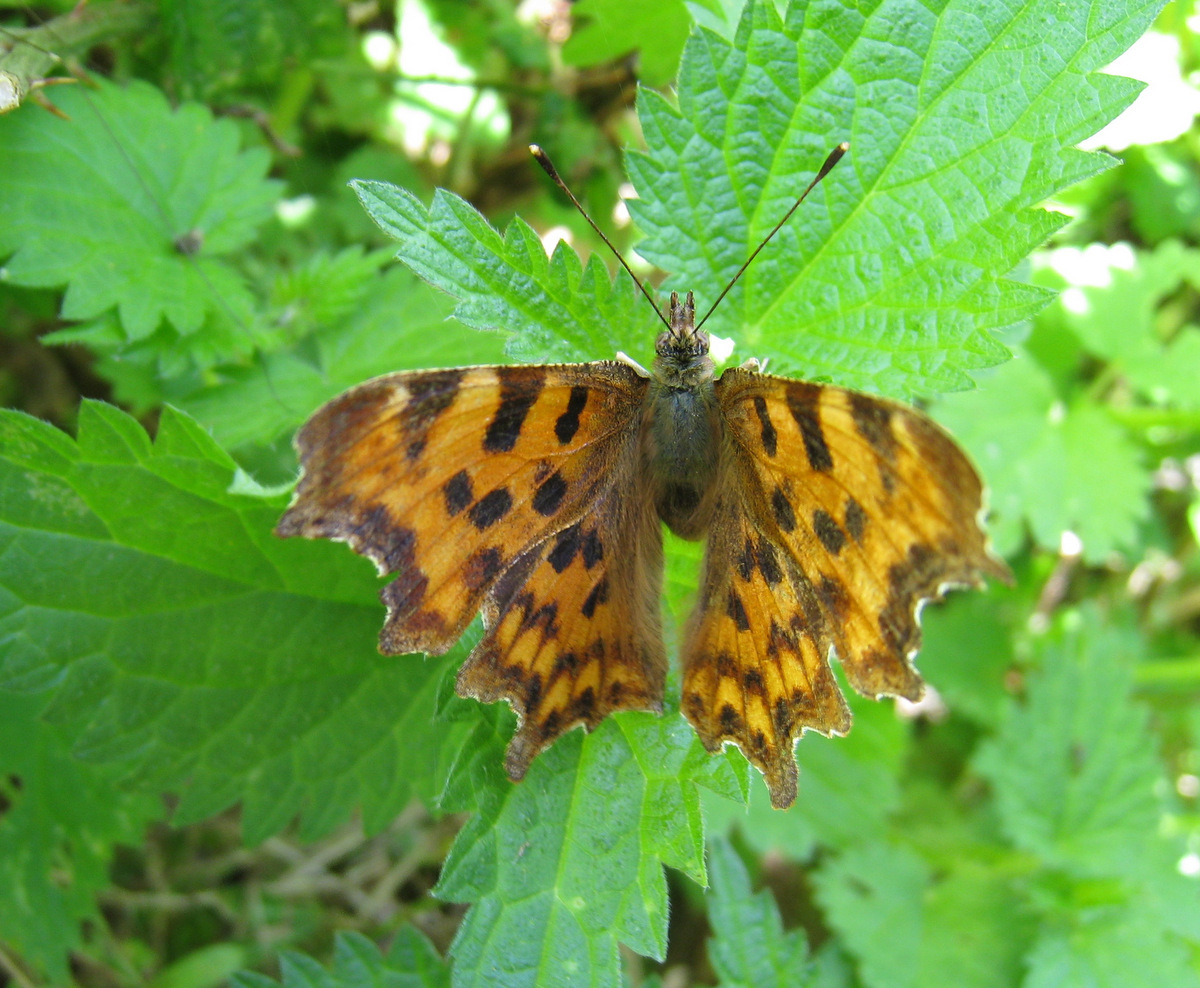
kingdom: Animalia
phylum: Arthropoda
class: Insecta
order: Lepidoptera
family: Nymphalidae
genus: Polygonia
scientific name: Polygonia c-album
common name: Comma
